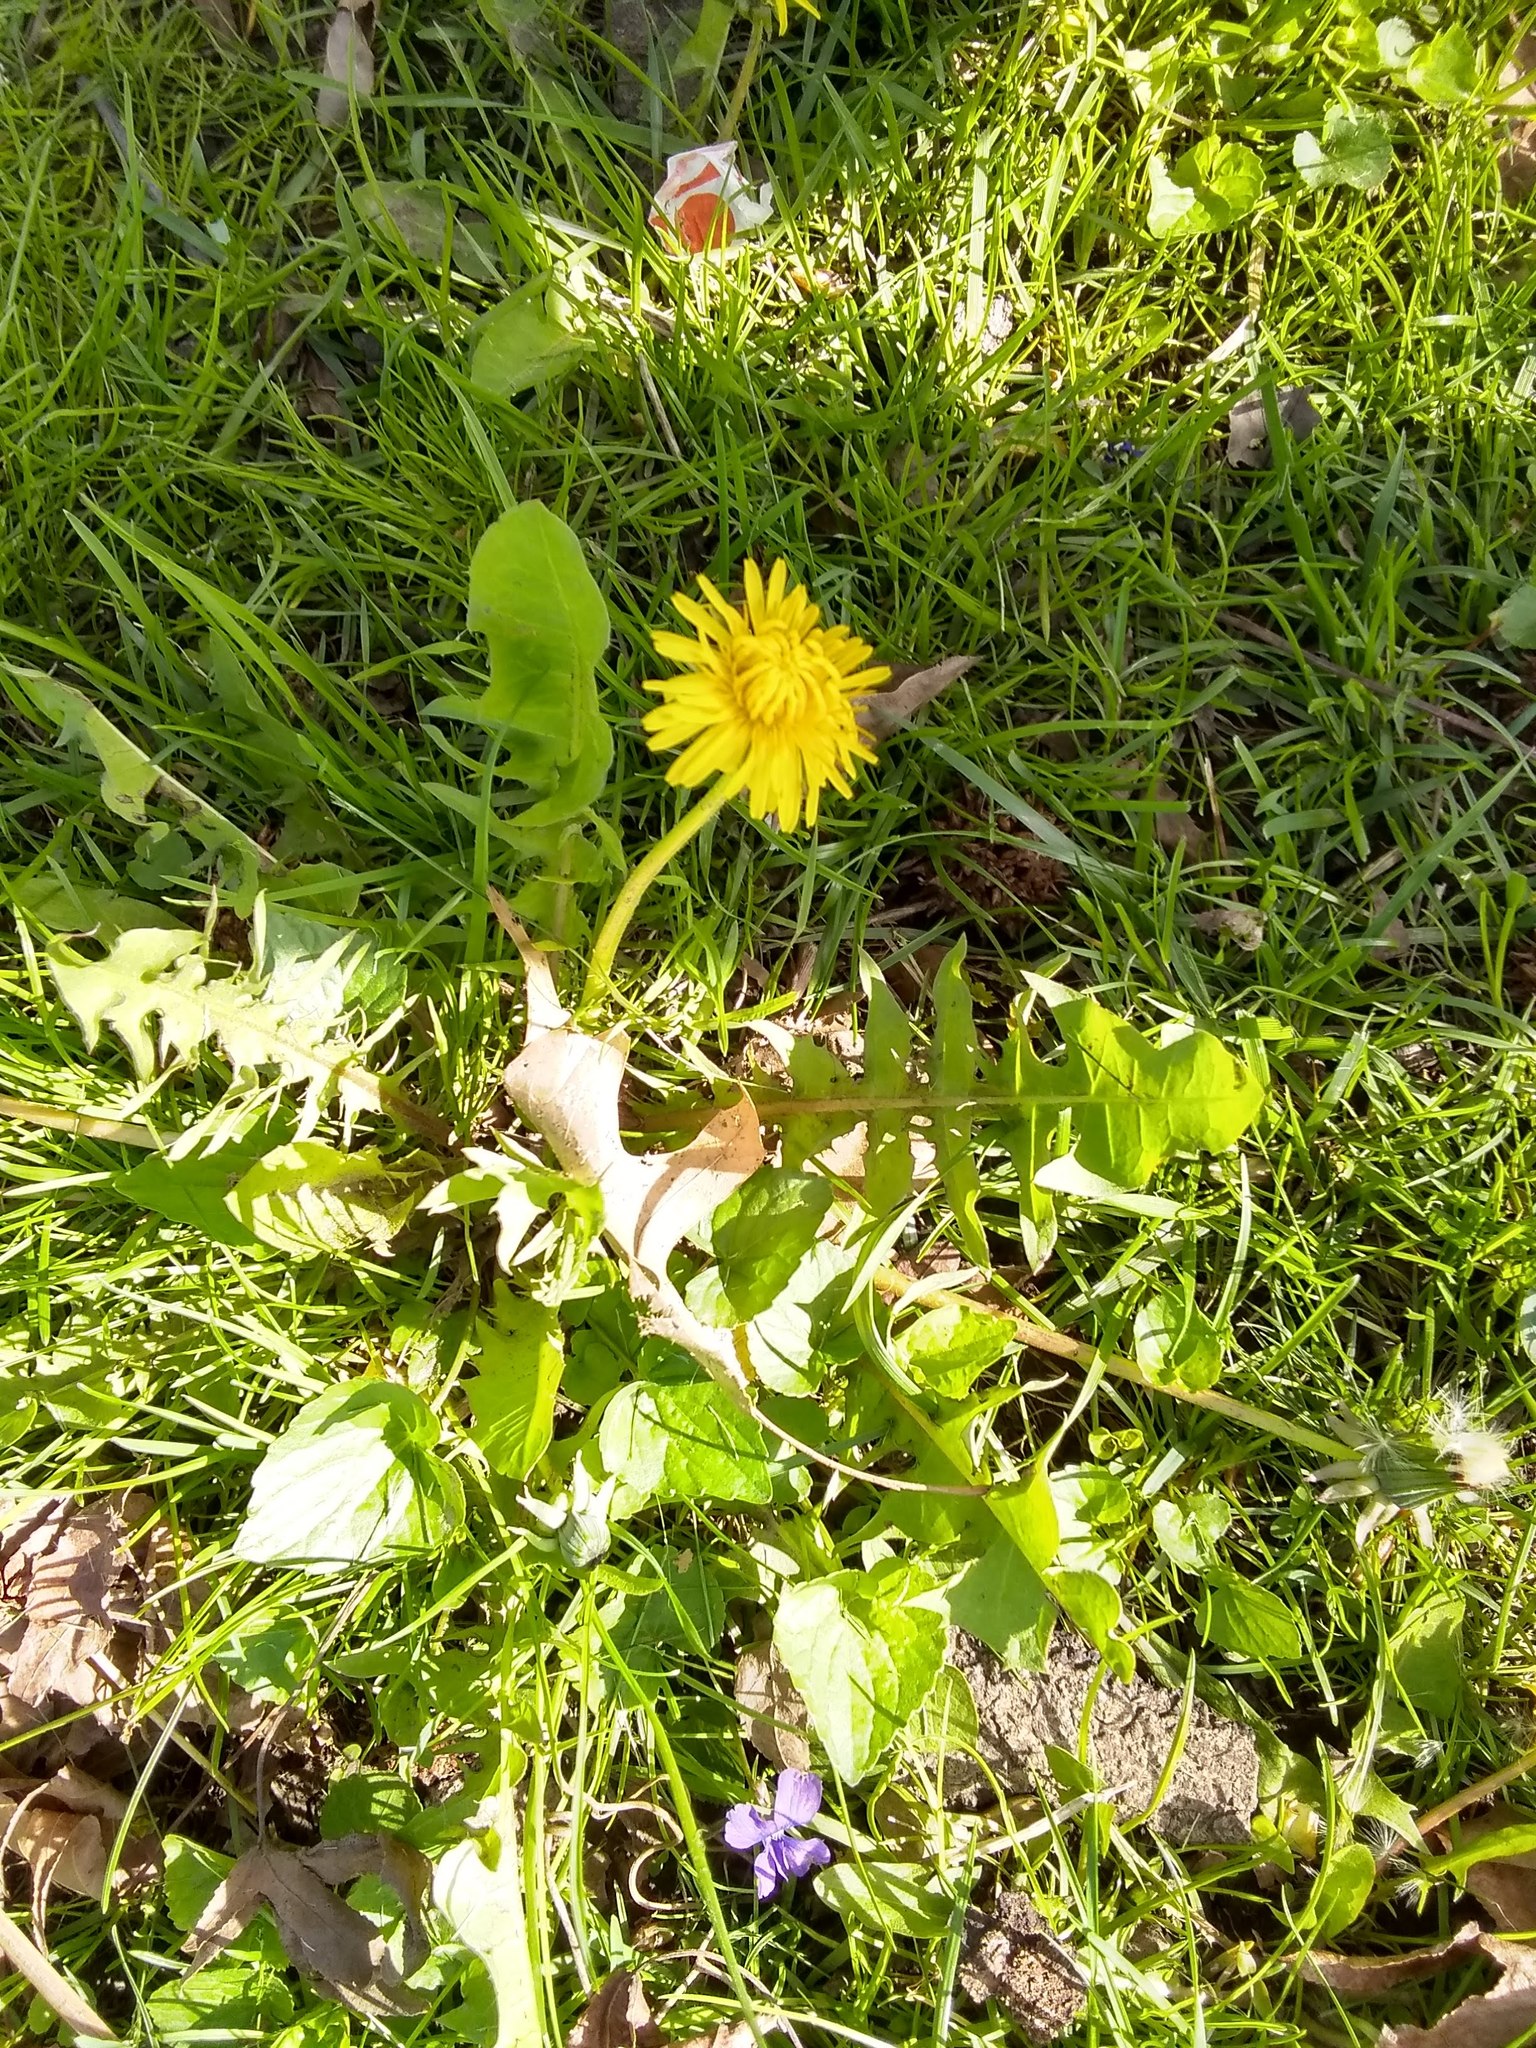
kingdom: Plantae
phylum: Tracheophyta
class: Magnoliopsida
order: Asterales
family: Asteraceae
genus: Taraxacum
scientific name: Taraxacum officinale
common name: Common dandelion
